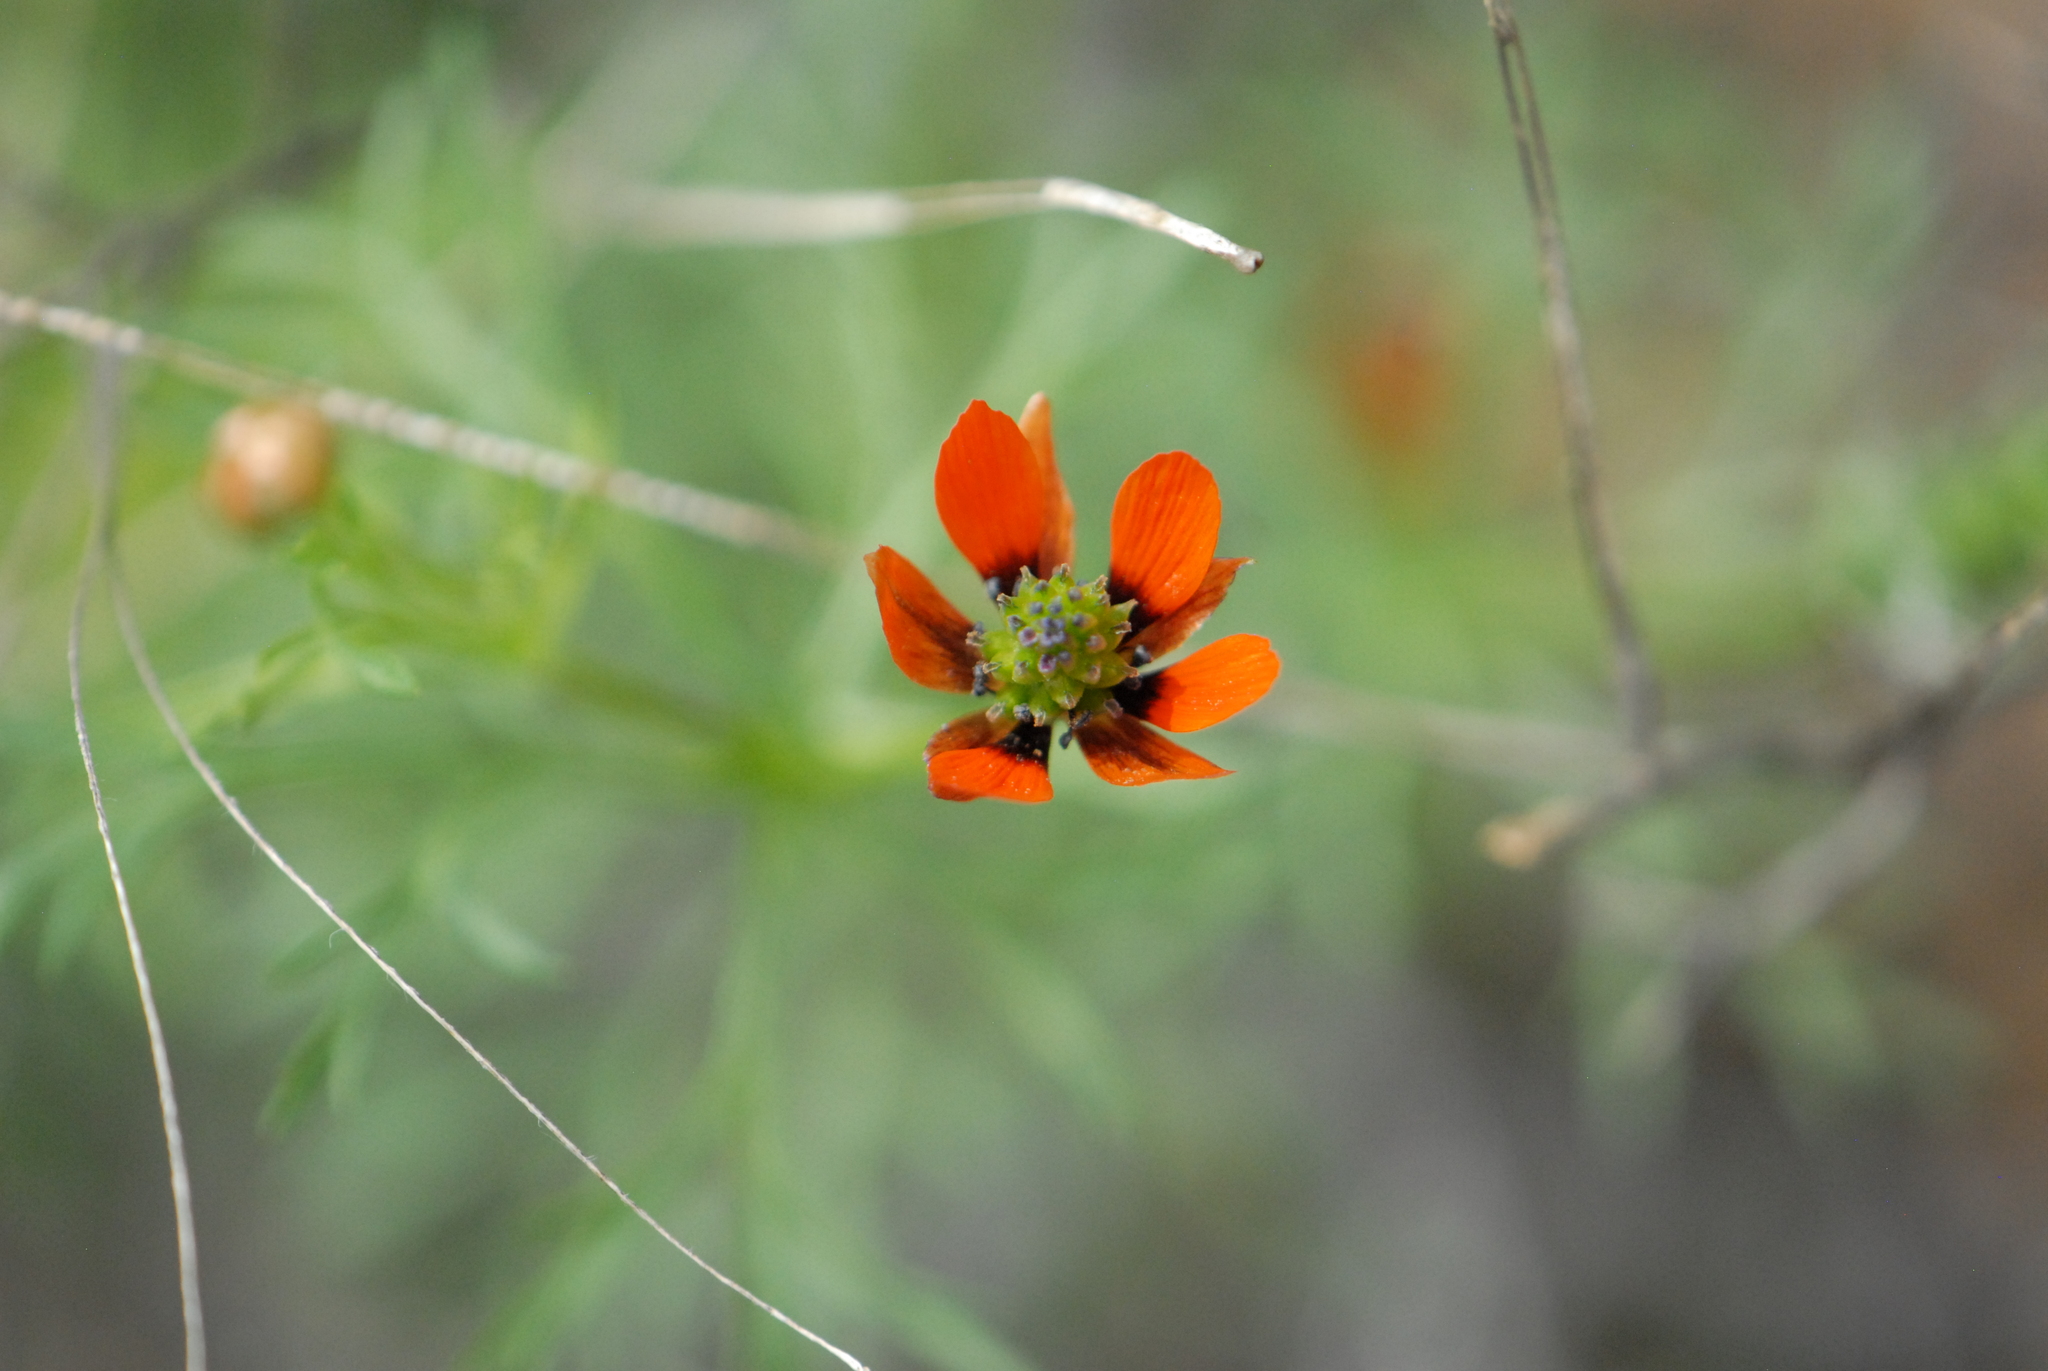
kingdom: Plantae
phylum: Tracheophyta
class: Magnoliopsida
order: Ranunculales
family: Ranunculaceae
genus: Adonis
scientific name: Adonis aestivalis
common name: Summer pheasant's-eye
